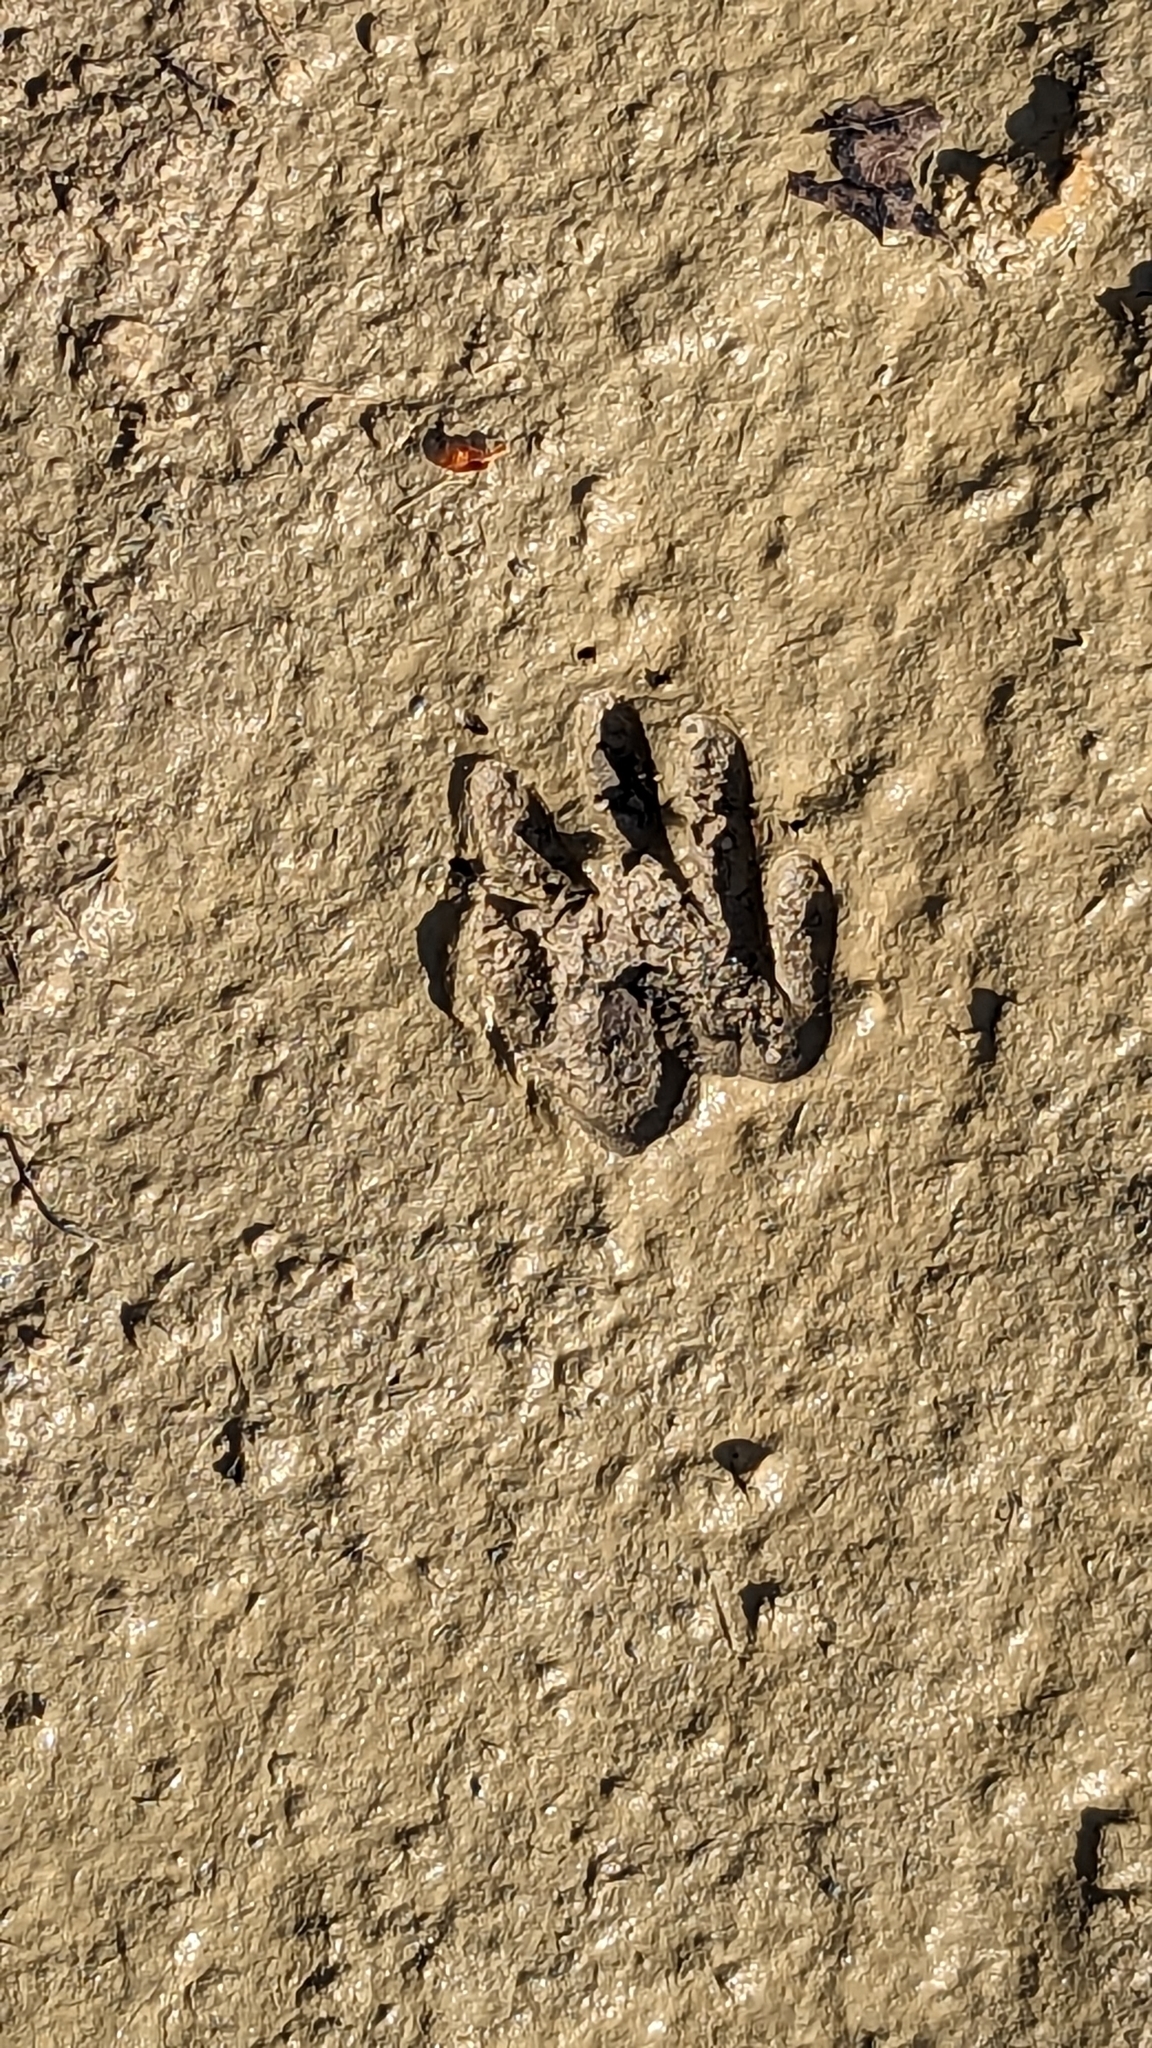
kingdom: Animalia
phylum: Chordata
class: Mammalia
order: Carnivora
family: Procyonidae
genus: Procyon
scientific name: Procyon lotor
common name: Raccoon
